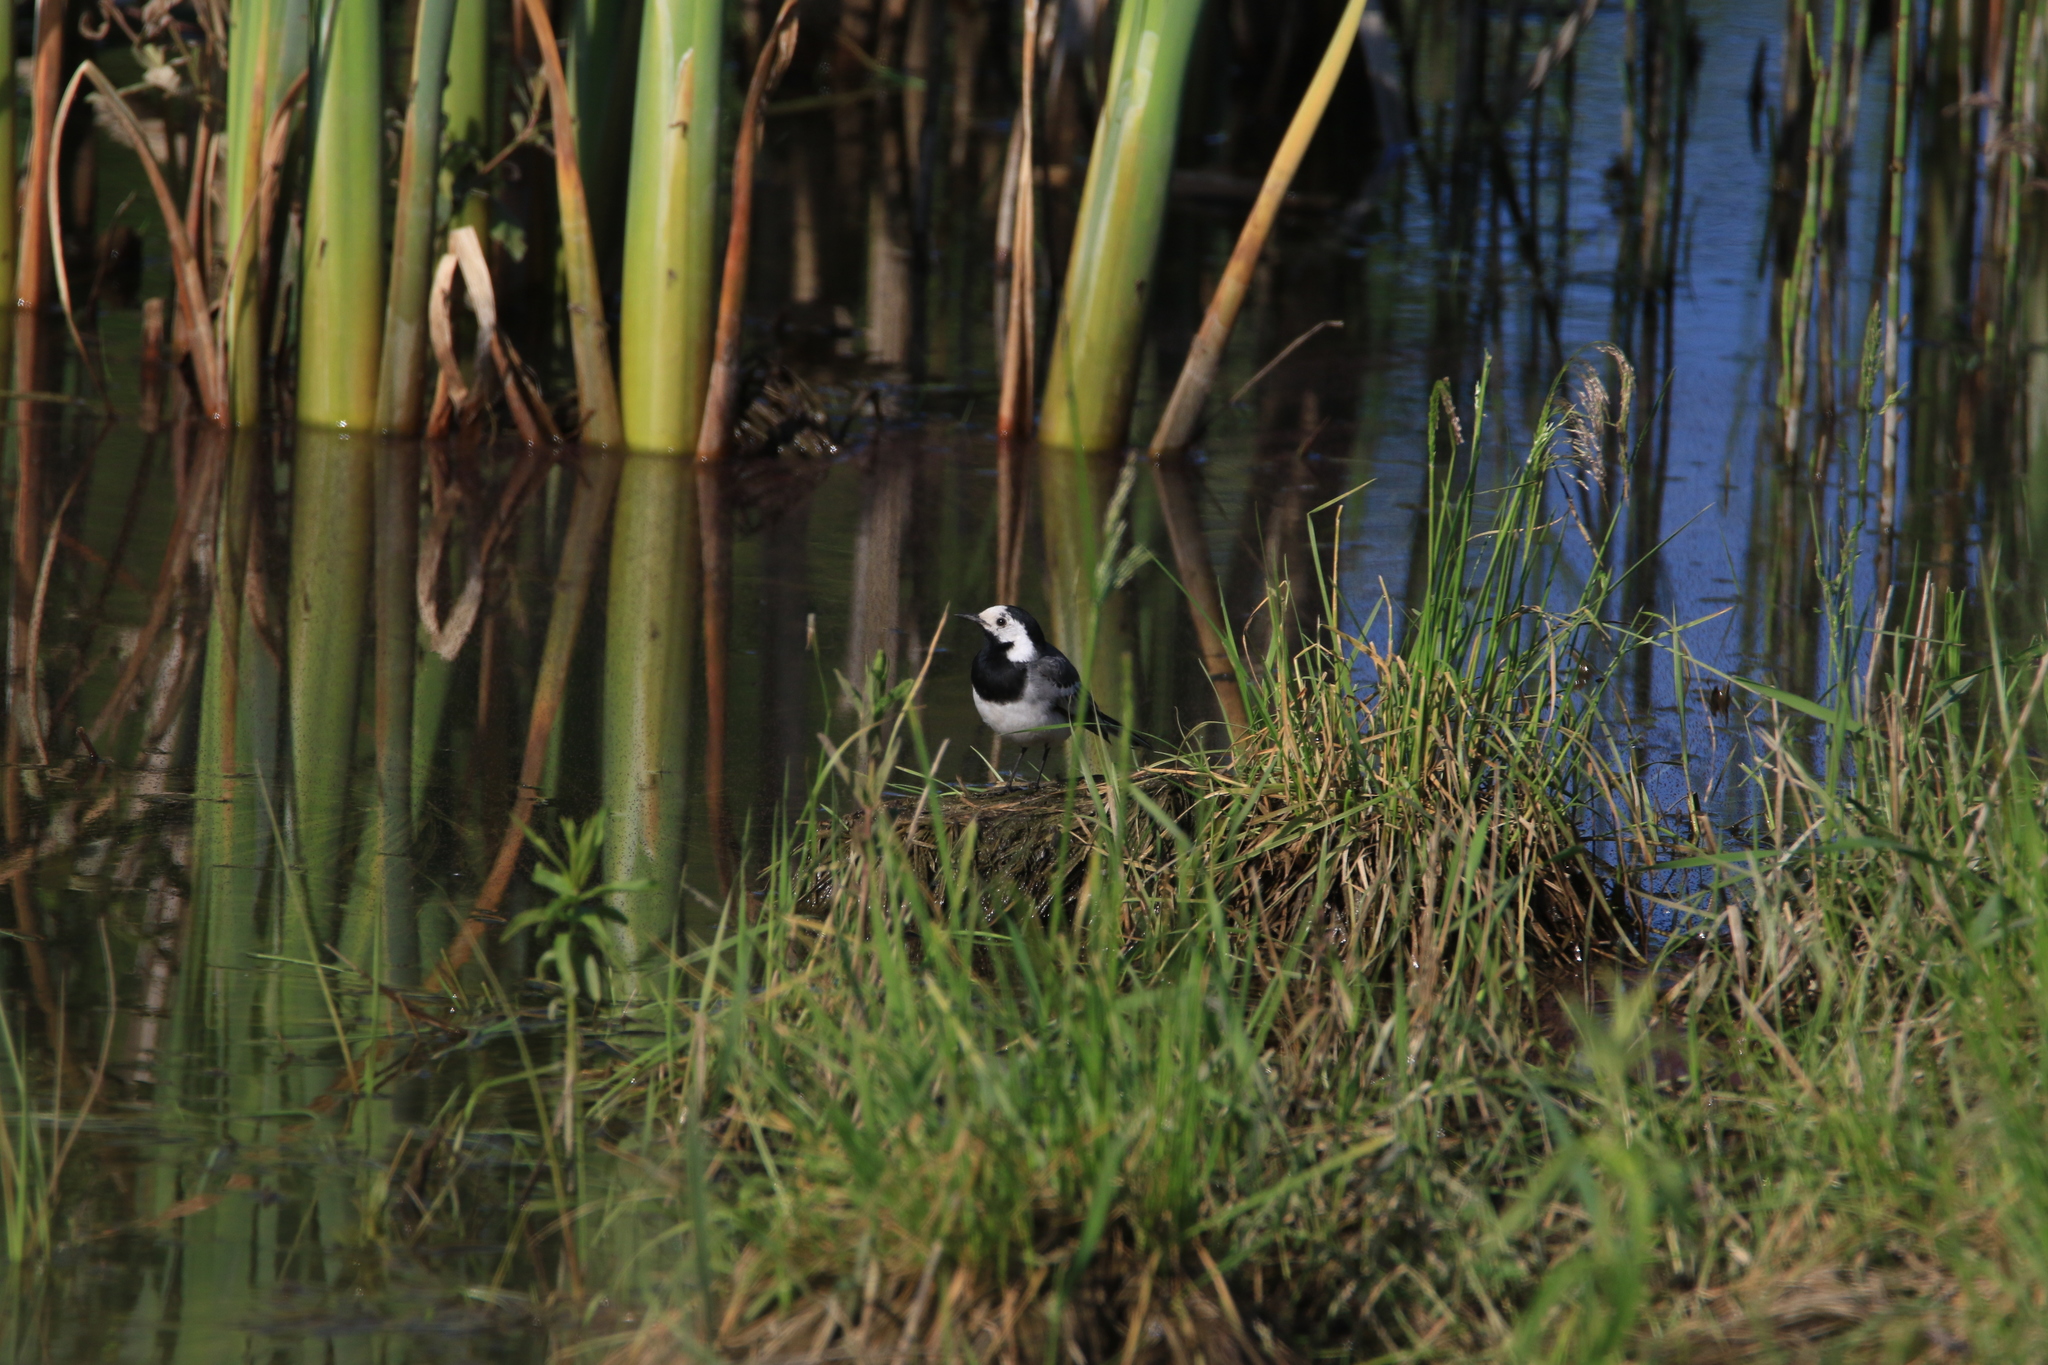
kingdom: Animalia
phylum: Chordata
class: Aves
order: Passeriformes
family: Motacillidae
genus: Motacilla
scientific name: Motacilla alba
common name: White wagtail
